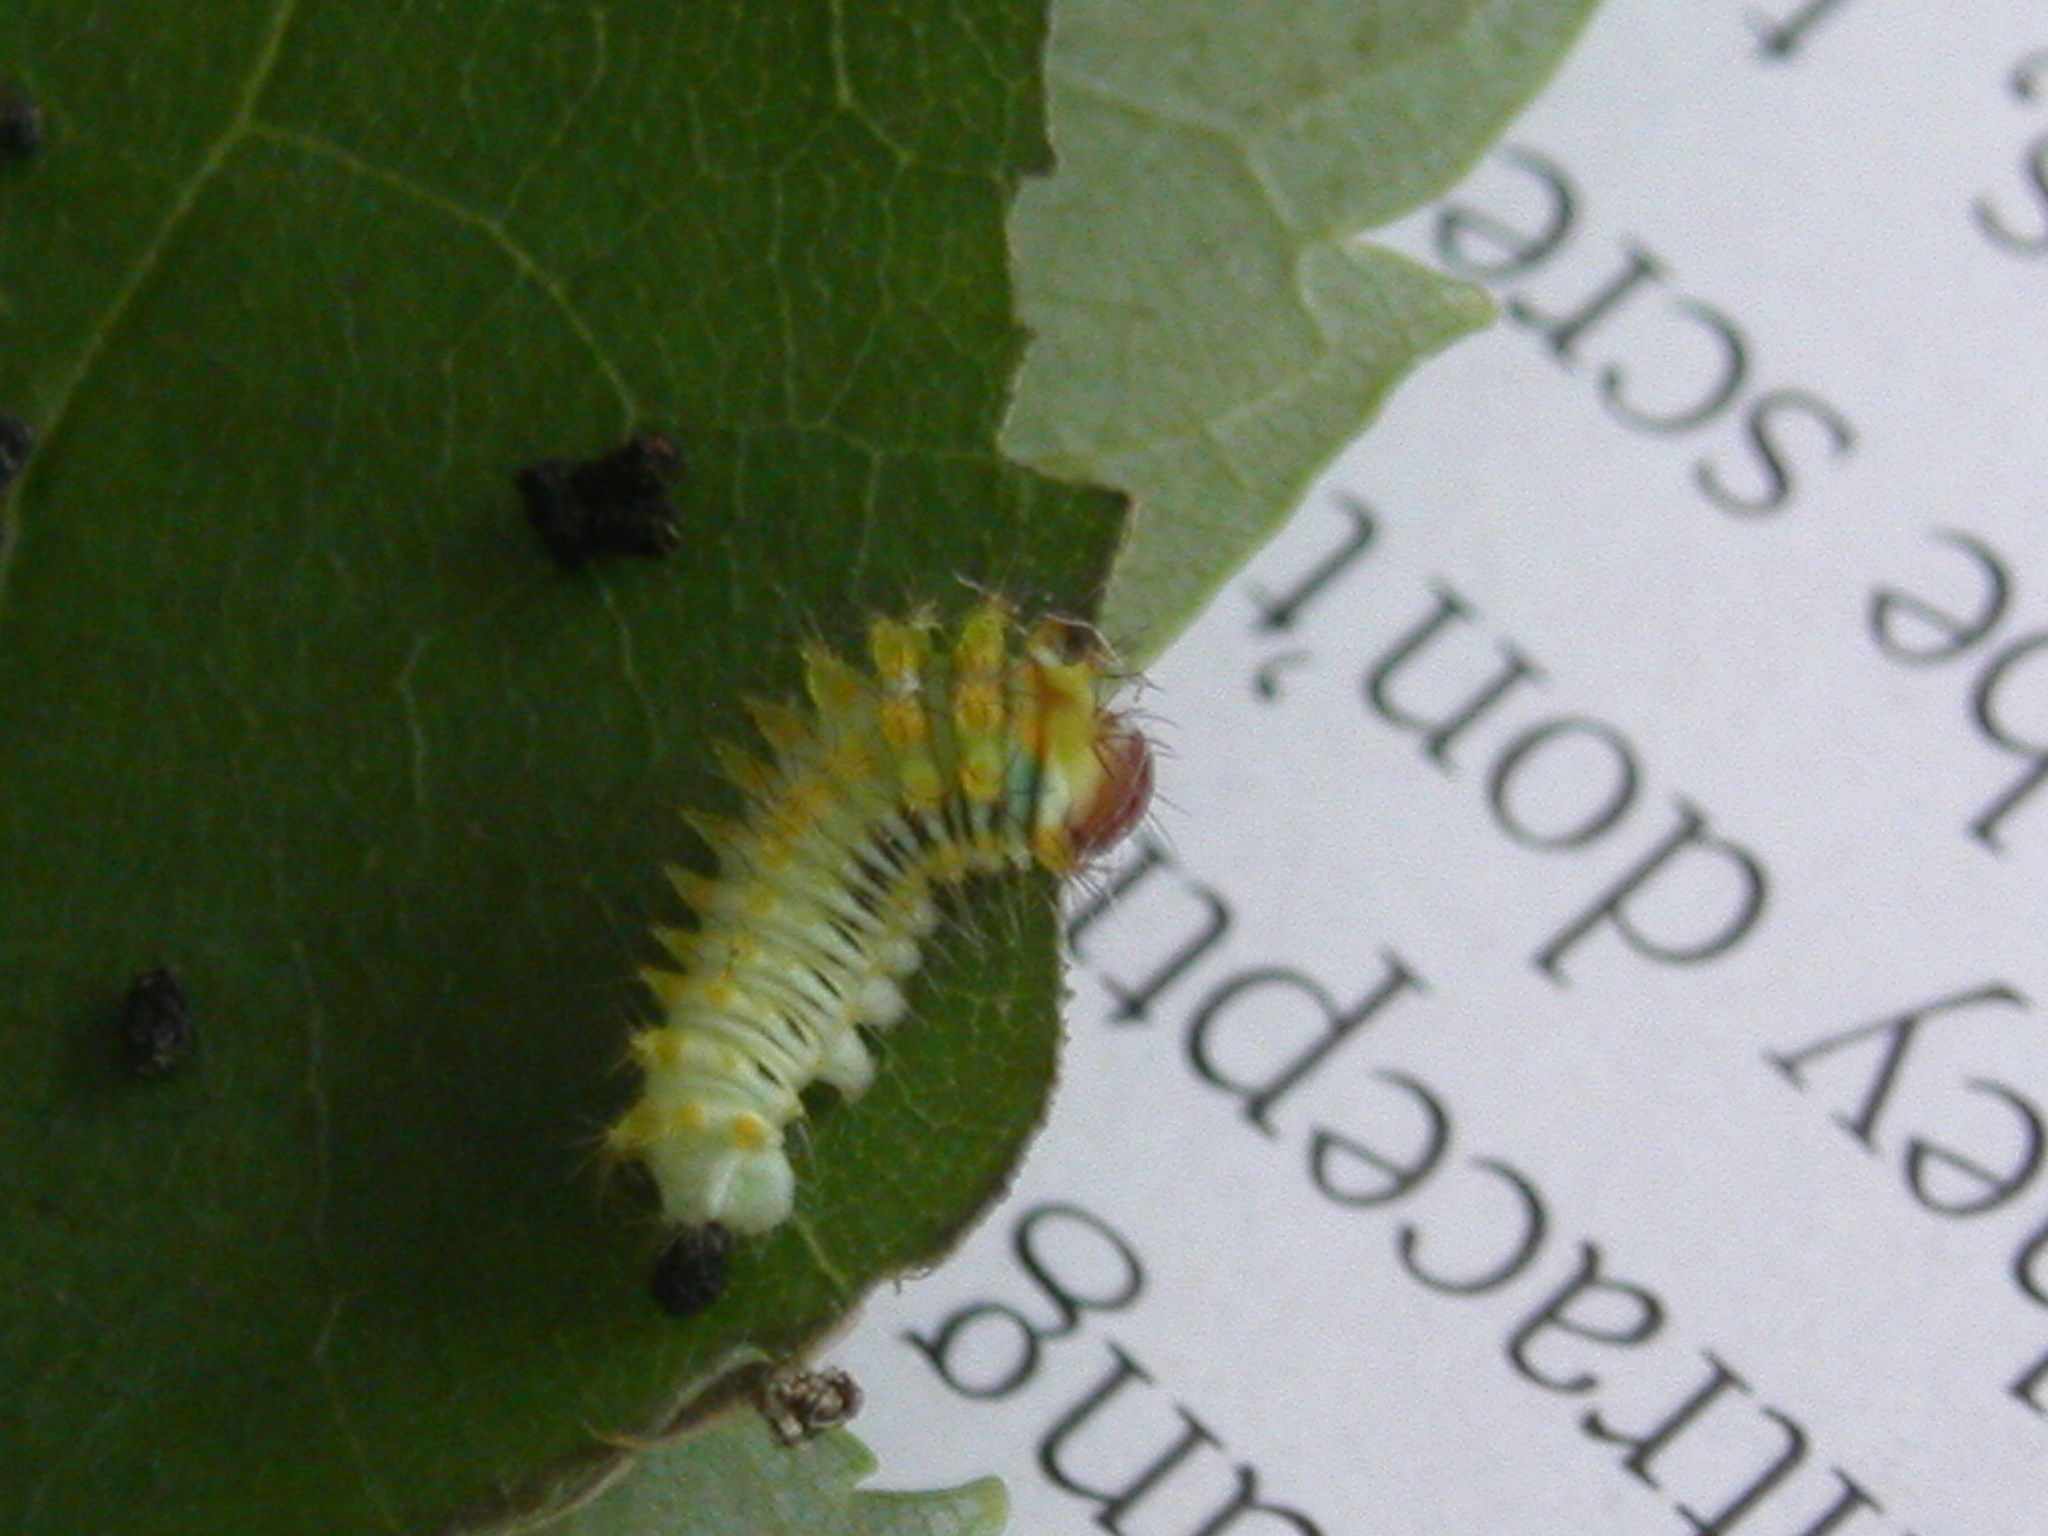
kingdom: Animalia
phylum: Arthropoda
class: Insecta
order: Lepidoptera
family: Saturniidae
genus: Antheraea
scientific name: Antheraea polyphemus
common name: Polyphemus moth
